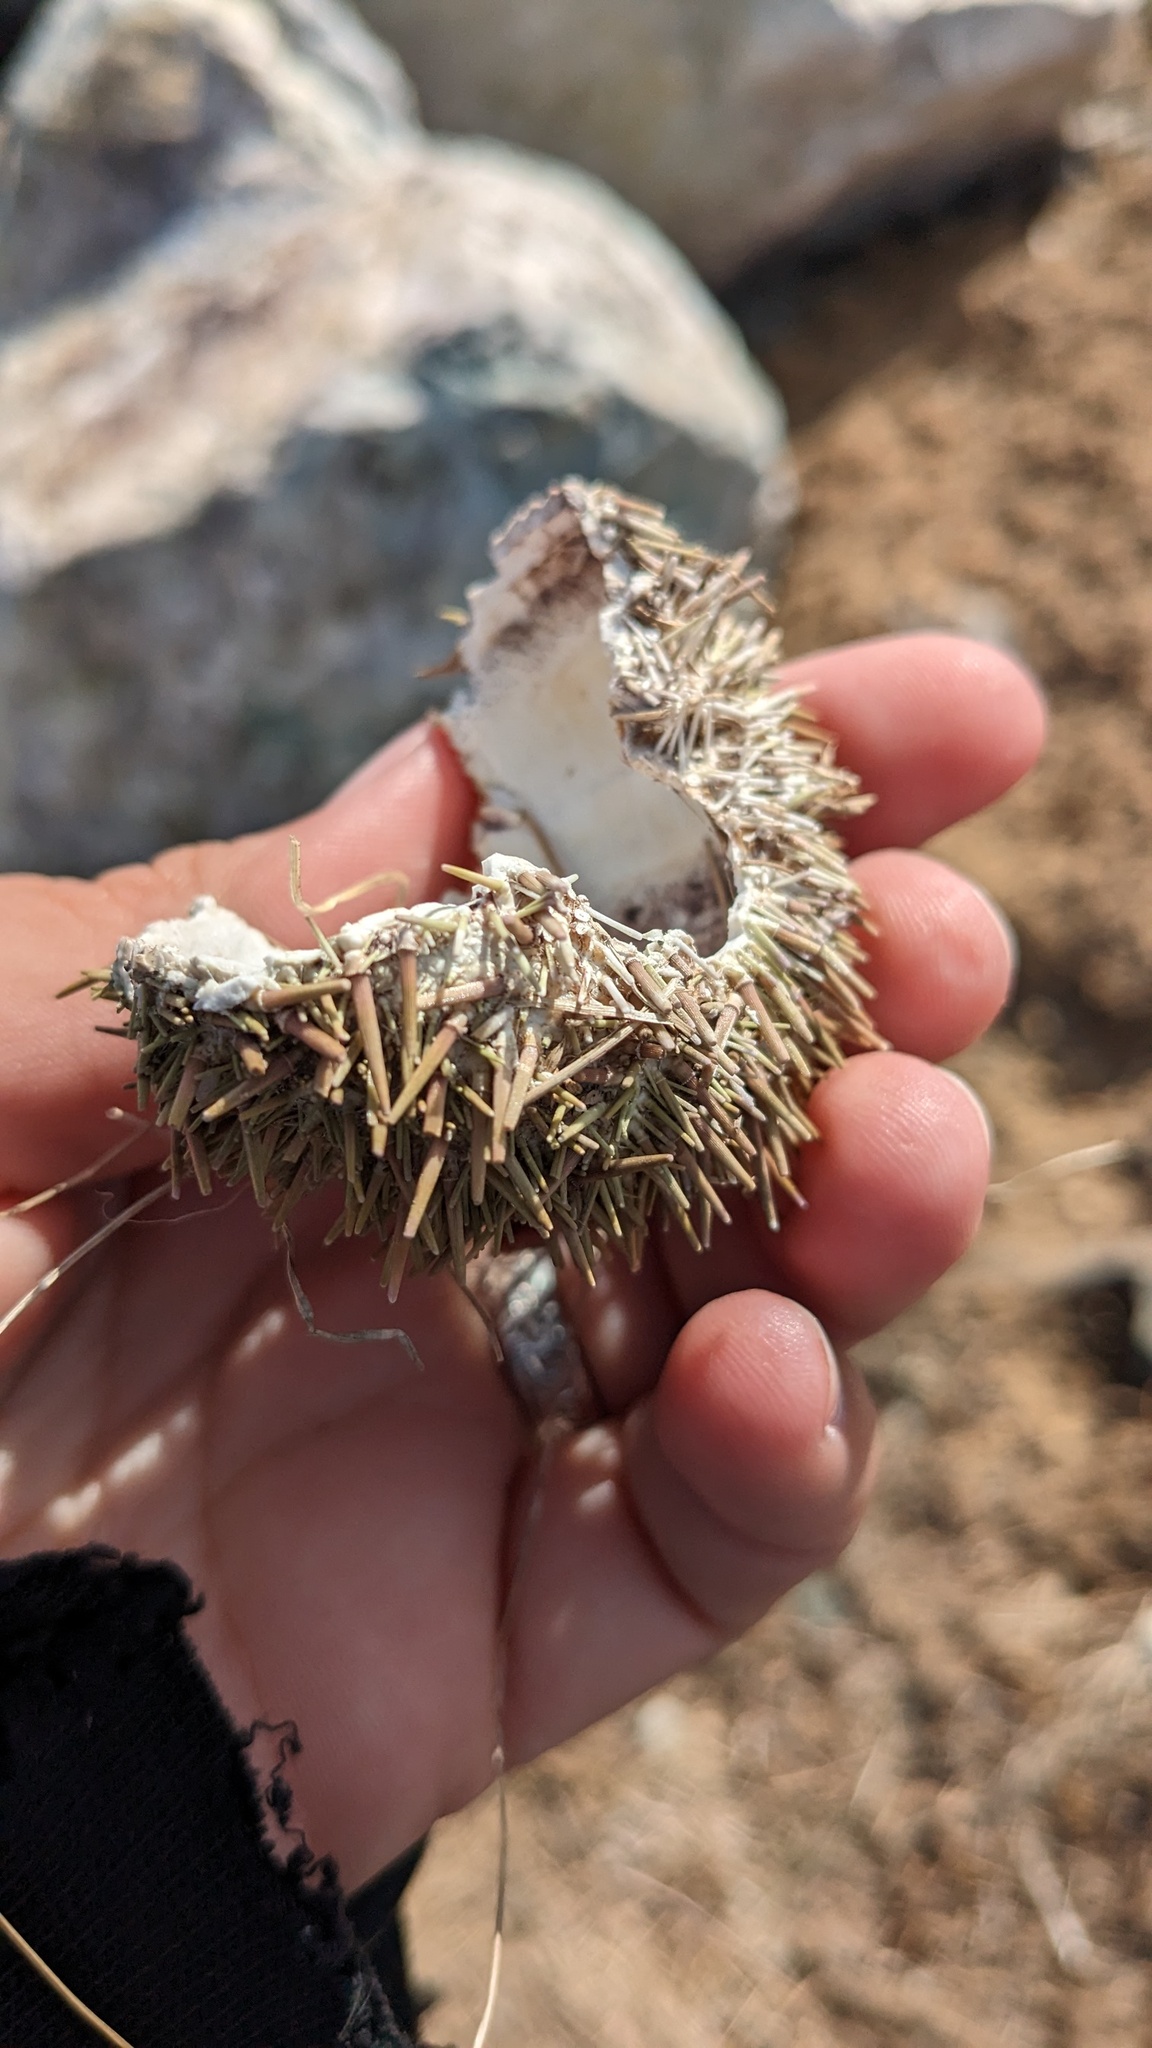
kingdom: Animalia
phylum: Echinodermata
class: Echinoidea
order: Camarodonta
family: Strongylocentrotidae
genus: Strongylocentrotus
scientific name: Strongylocentrotus droebachiensis
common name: Northern sea urchin
